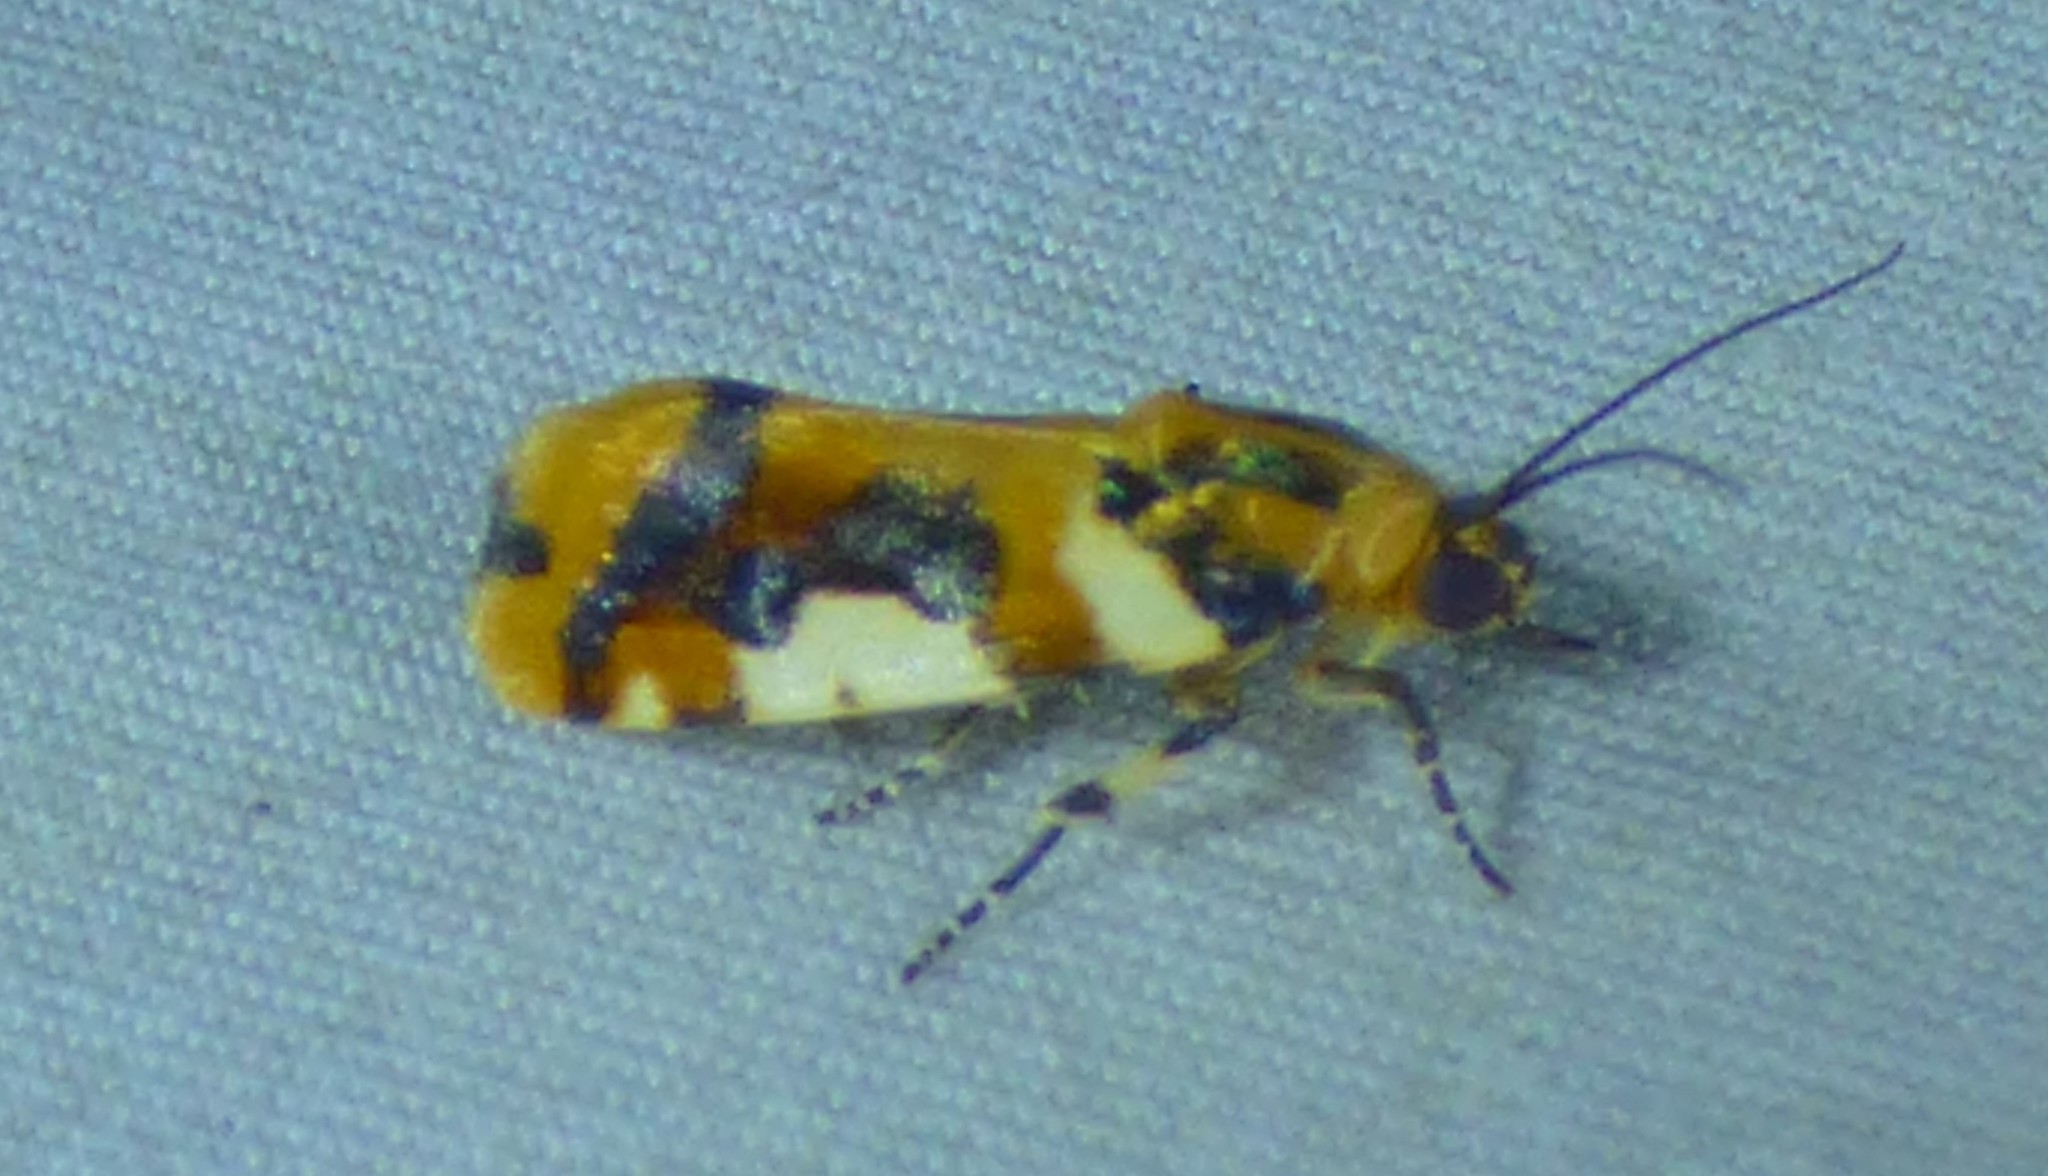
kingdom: Animalia
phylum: Arthropoda
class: Insecta
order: Lepidoptera
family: Noctuidae
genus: Acontia
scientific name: Acontia dama
